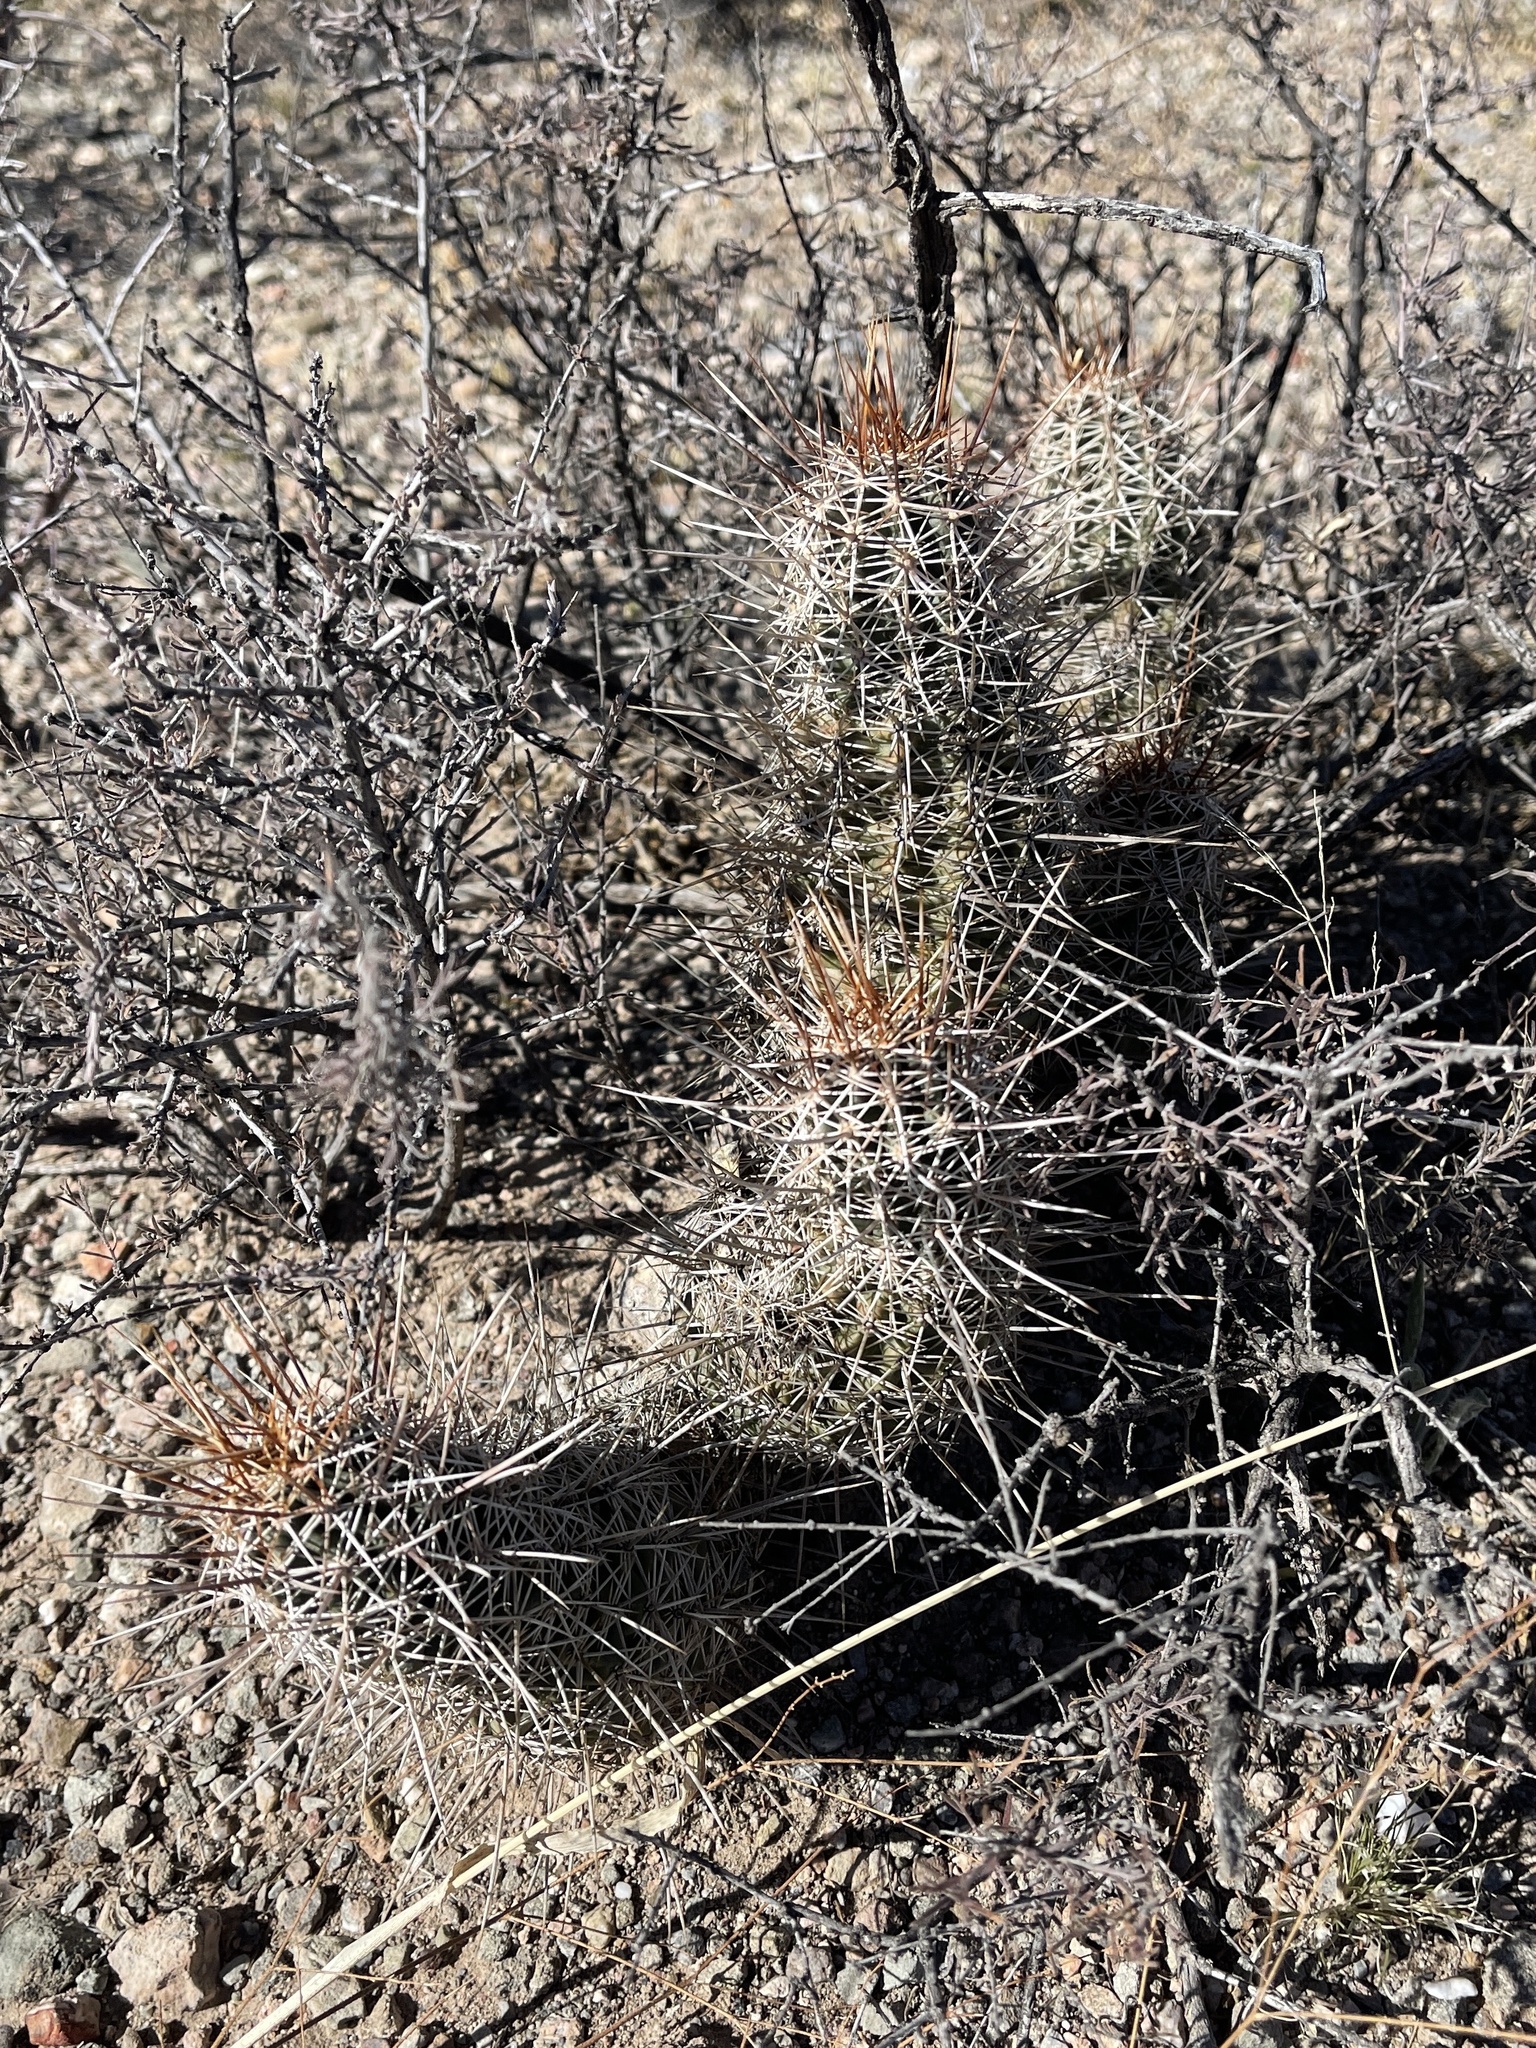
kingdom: Plantae
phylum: Tracheophyta
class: Magnoliopsida
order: Caryophyllales
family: Cactaceae
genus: Echinocereus
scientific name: Echinocereus fasciculatus
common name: Bundle hedgehog
